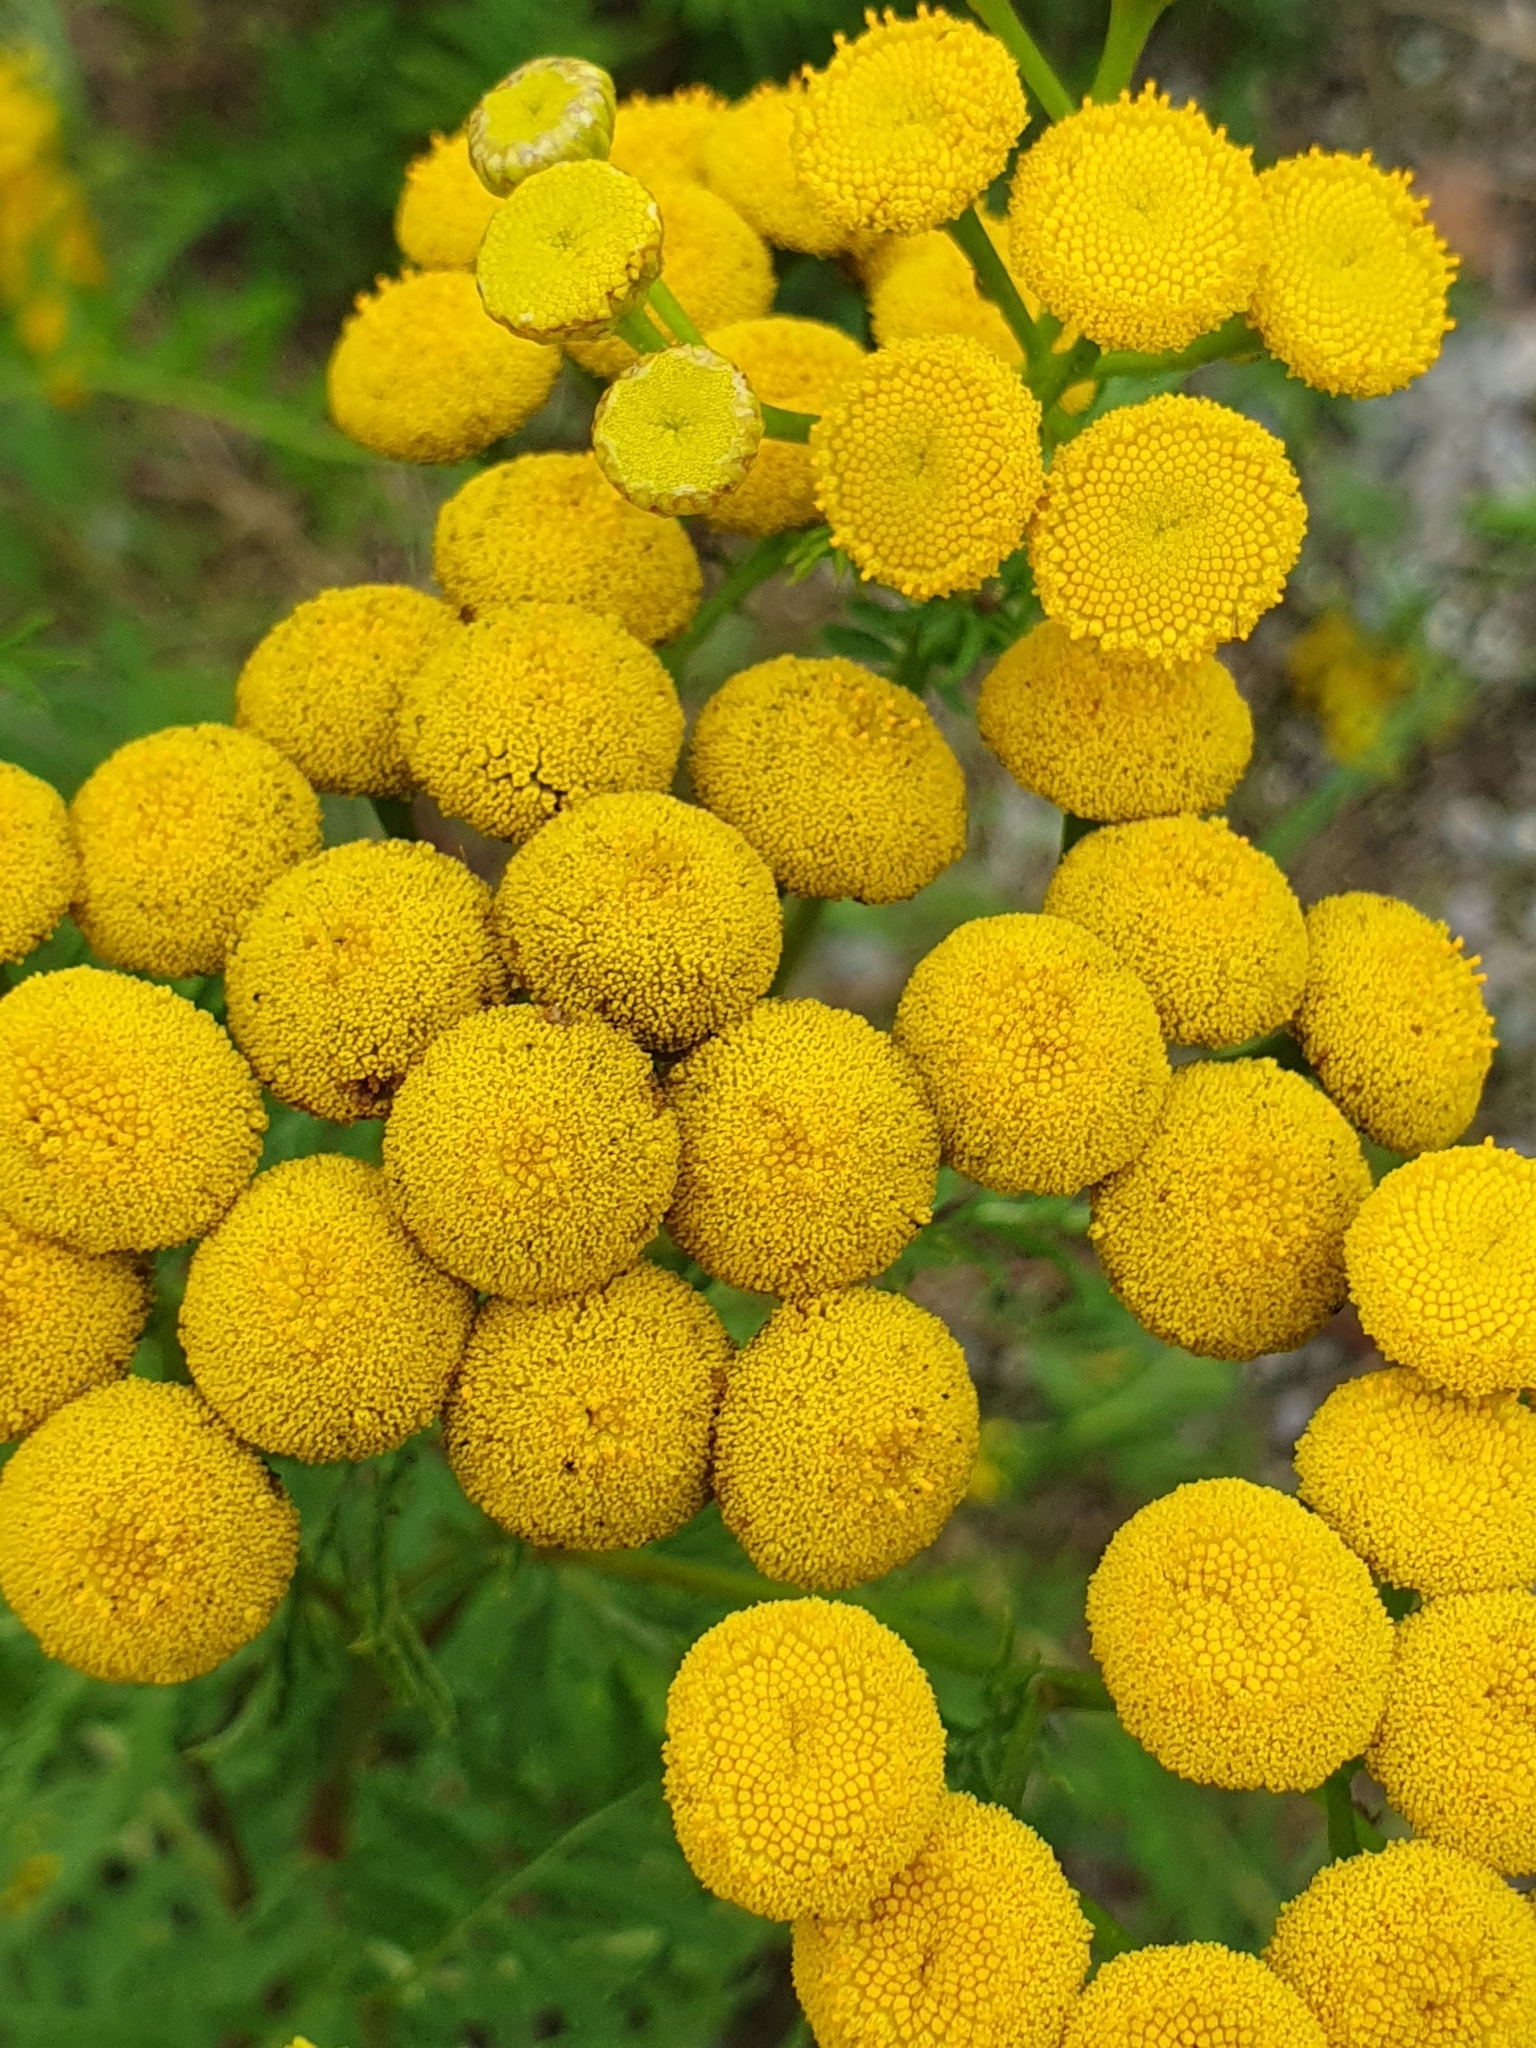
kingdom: Plantae
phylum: Tracheophyta
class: Magnoliopsida
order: Asterales
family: Asteraceae
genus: Tanacetum
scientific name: Tanacetum vulgare
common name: Common tansy
